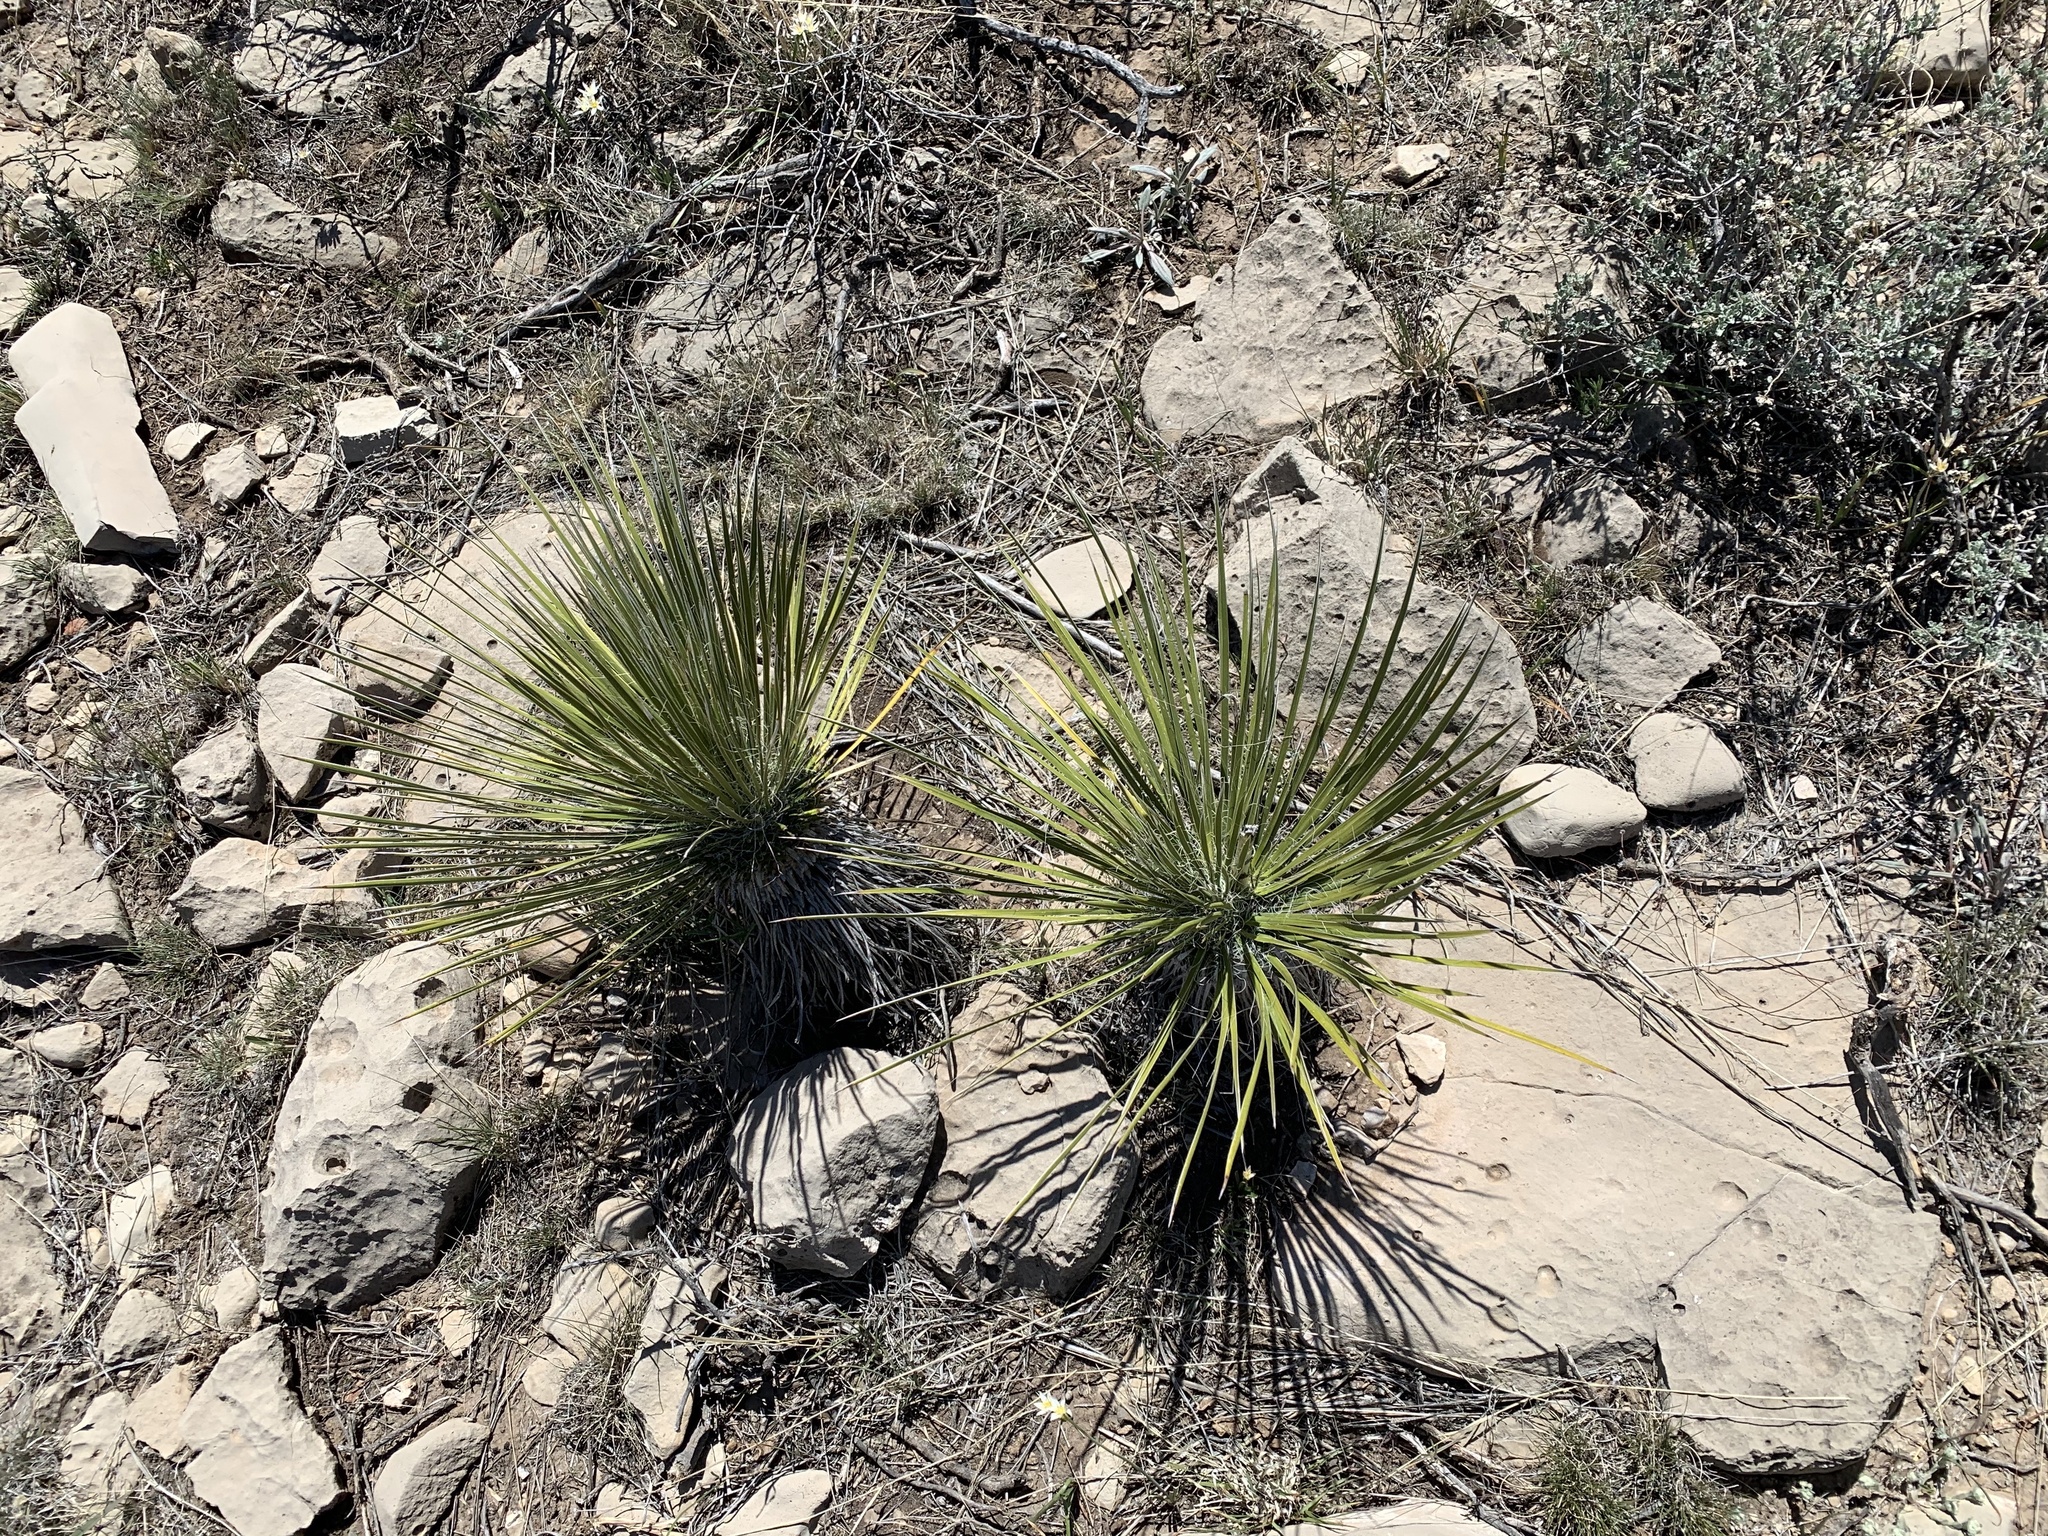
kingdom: Plantae
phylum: Tracheophyta
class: Liliopsida
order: Asparagales
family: Asparagaceae
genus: Yucca
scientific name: Yucca elata
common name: Palmella
